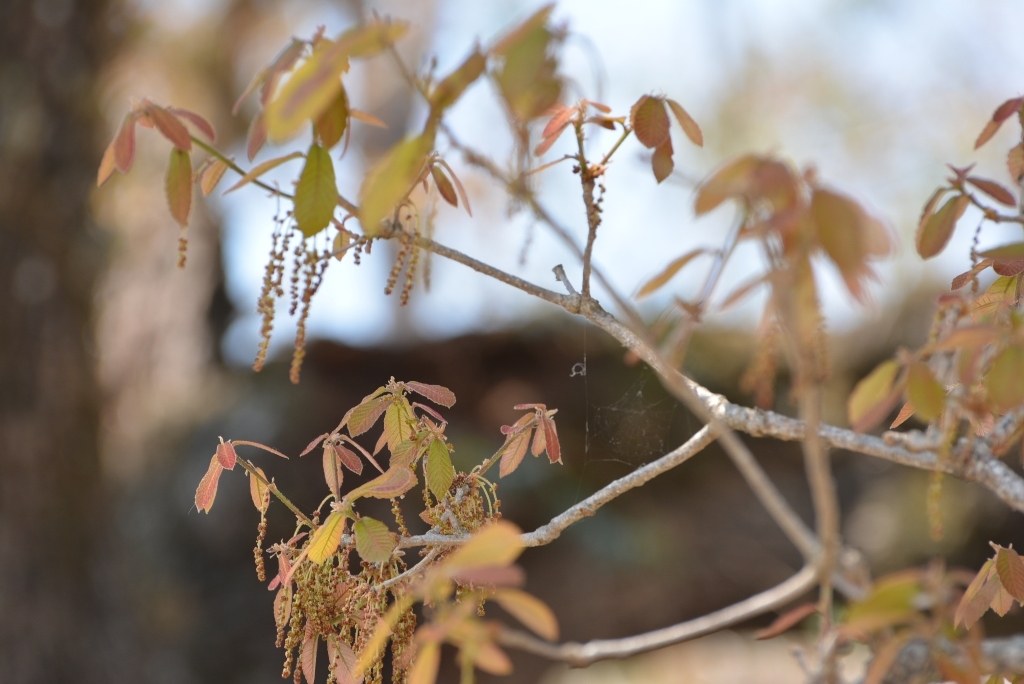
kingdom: Plantae
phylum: Tracheophyta
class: Magnoliopsida
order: Fagales
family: Fagaceae
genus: Quercus
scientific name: Quercus segoviensis
